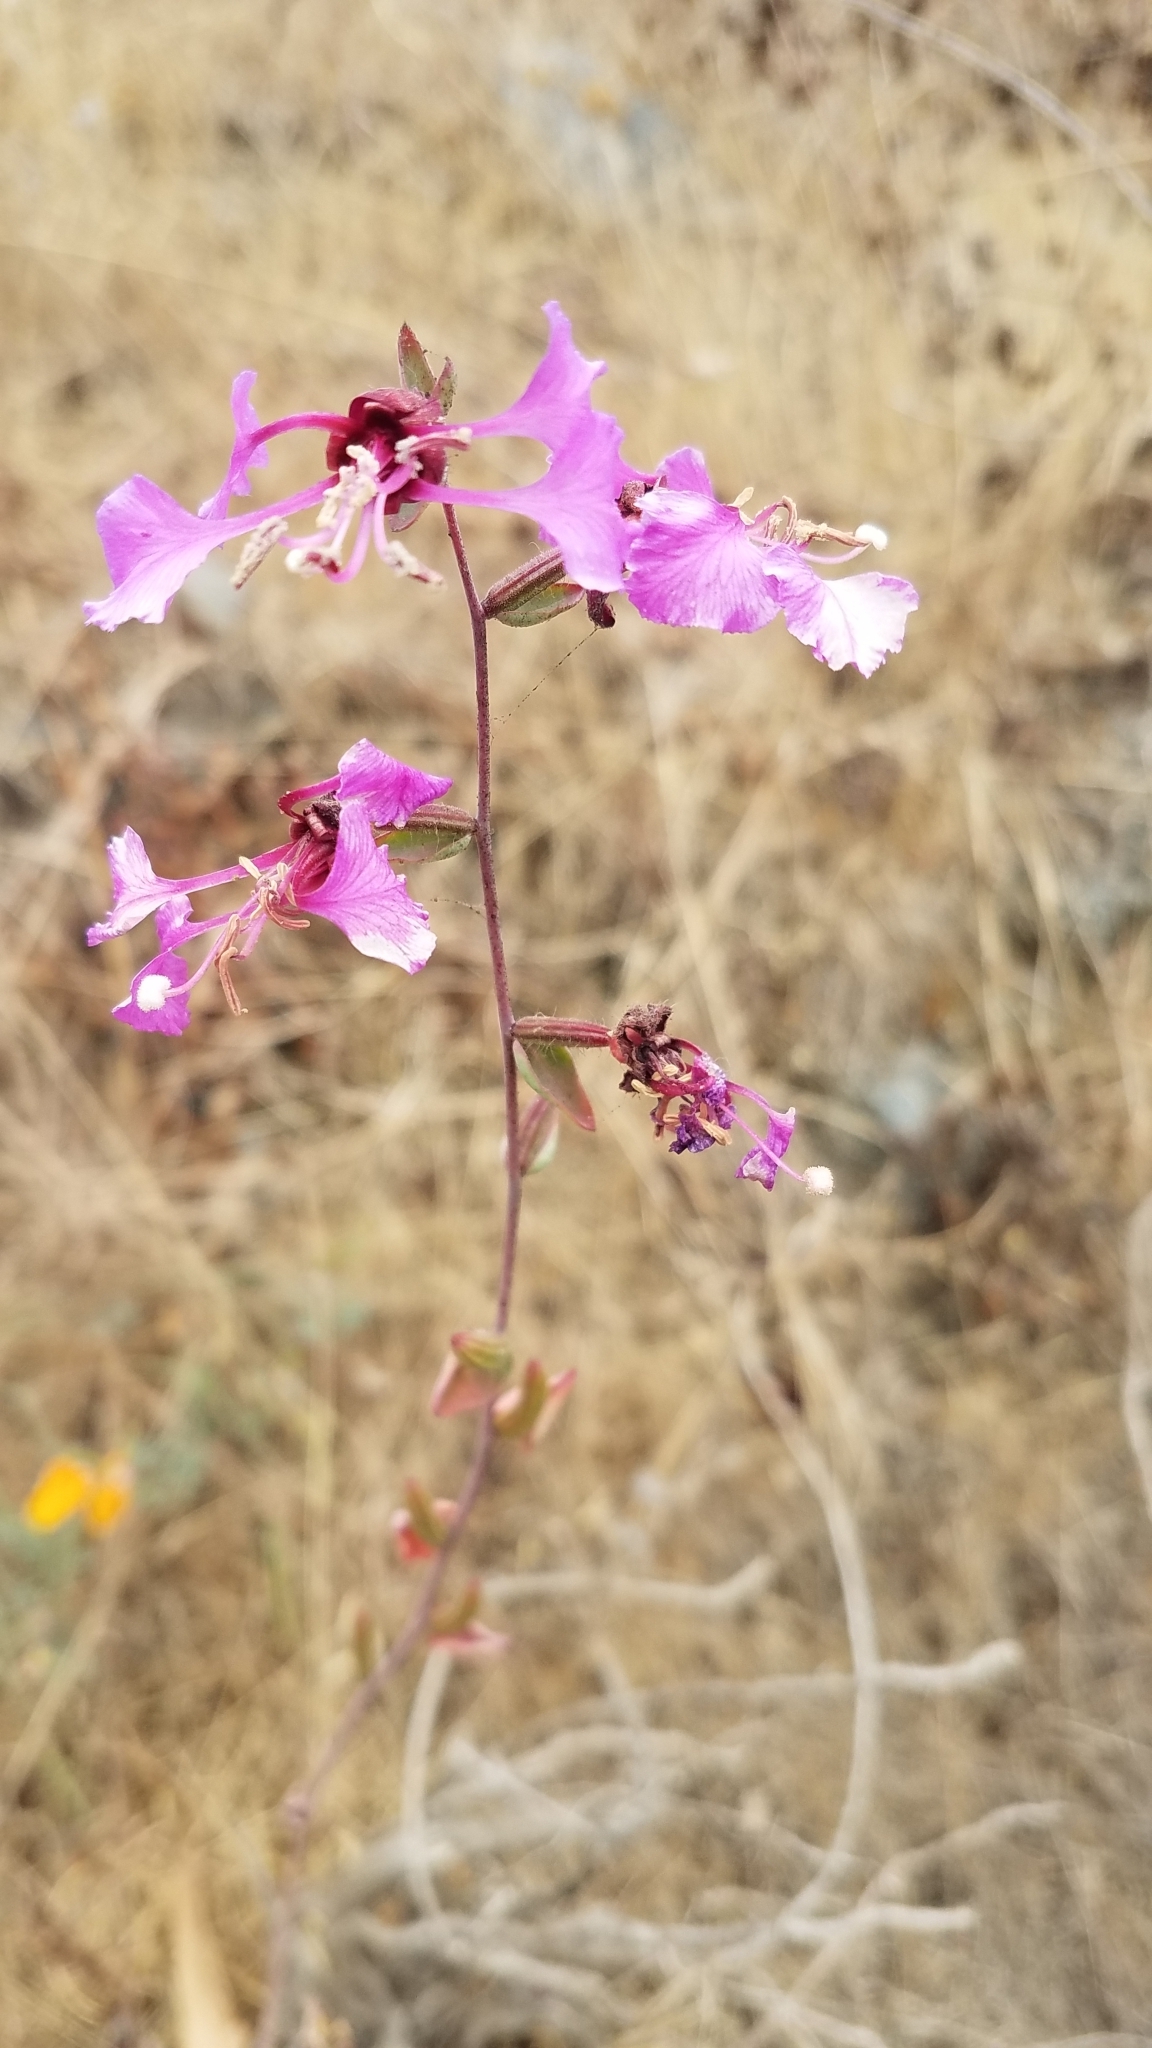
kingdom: Plantae
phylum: Tracheophyta
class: Magnoliopsida
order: Myrtales
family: Onagraceae
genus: Clarkia
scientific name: Clarkia unguiculata
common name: Clarkia
